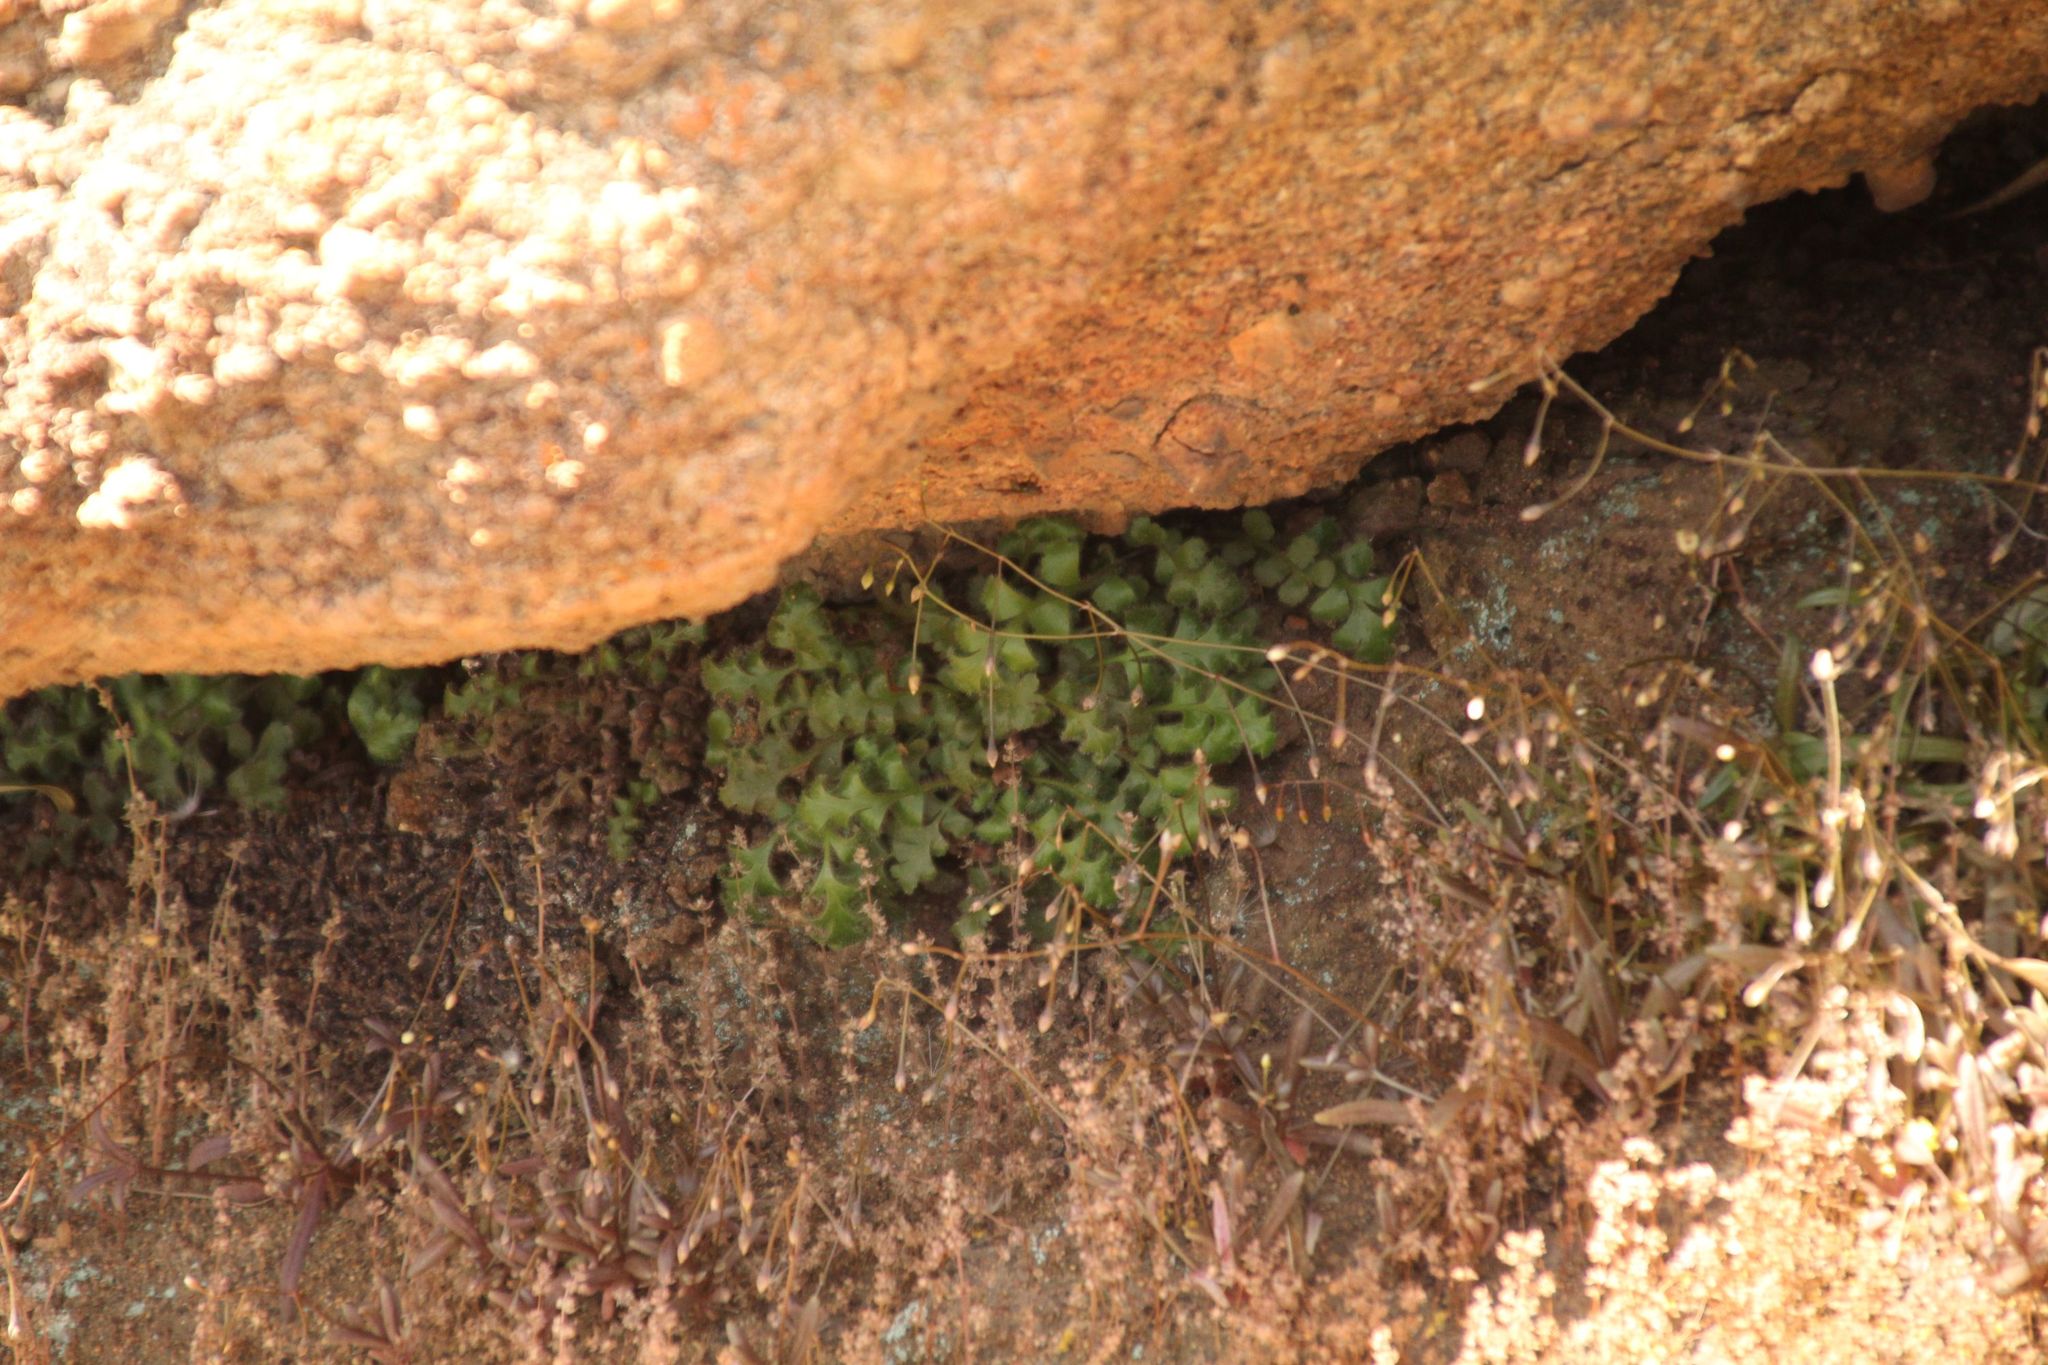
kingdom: Plantae
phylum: Tracheophyta
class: Polypodiopsida
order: Polypodiales
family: Aspleniaceae
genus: Asplenium
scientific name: Asplenium subglandulosum
